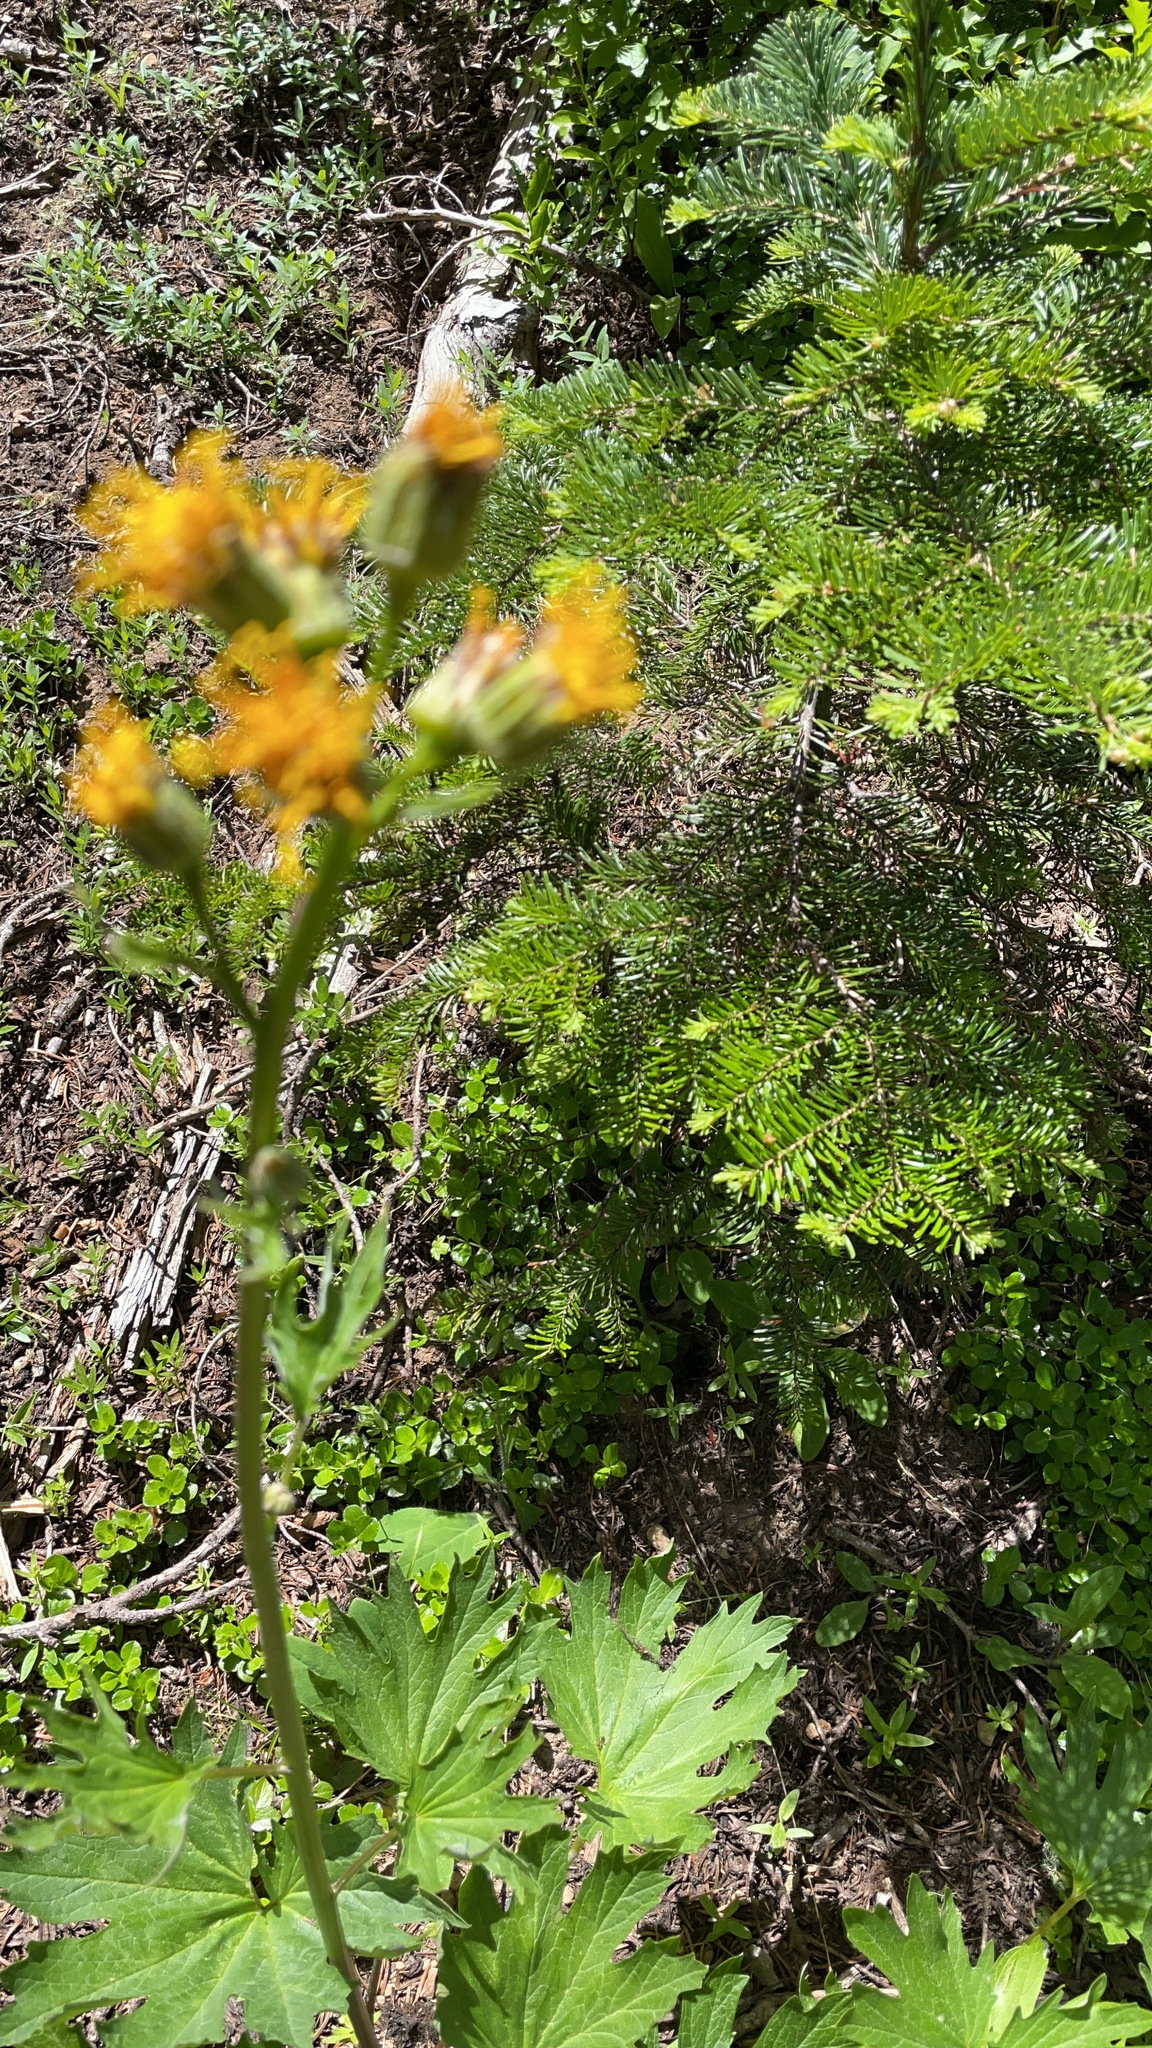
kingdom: Plantae
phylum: Tracheophyta
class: Magnoliopsida
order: Asterales
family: Asteraceae
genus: Cacaliopsis
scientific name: Cacaliopsis nardosmia
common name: Silvercrown
